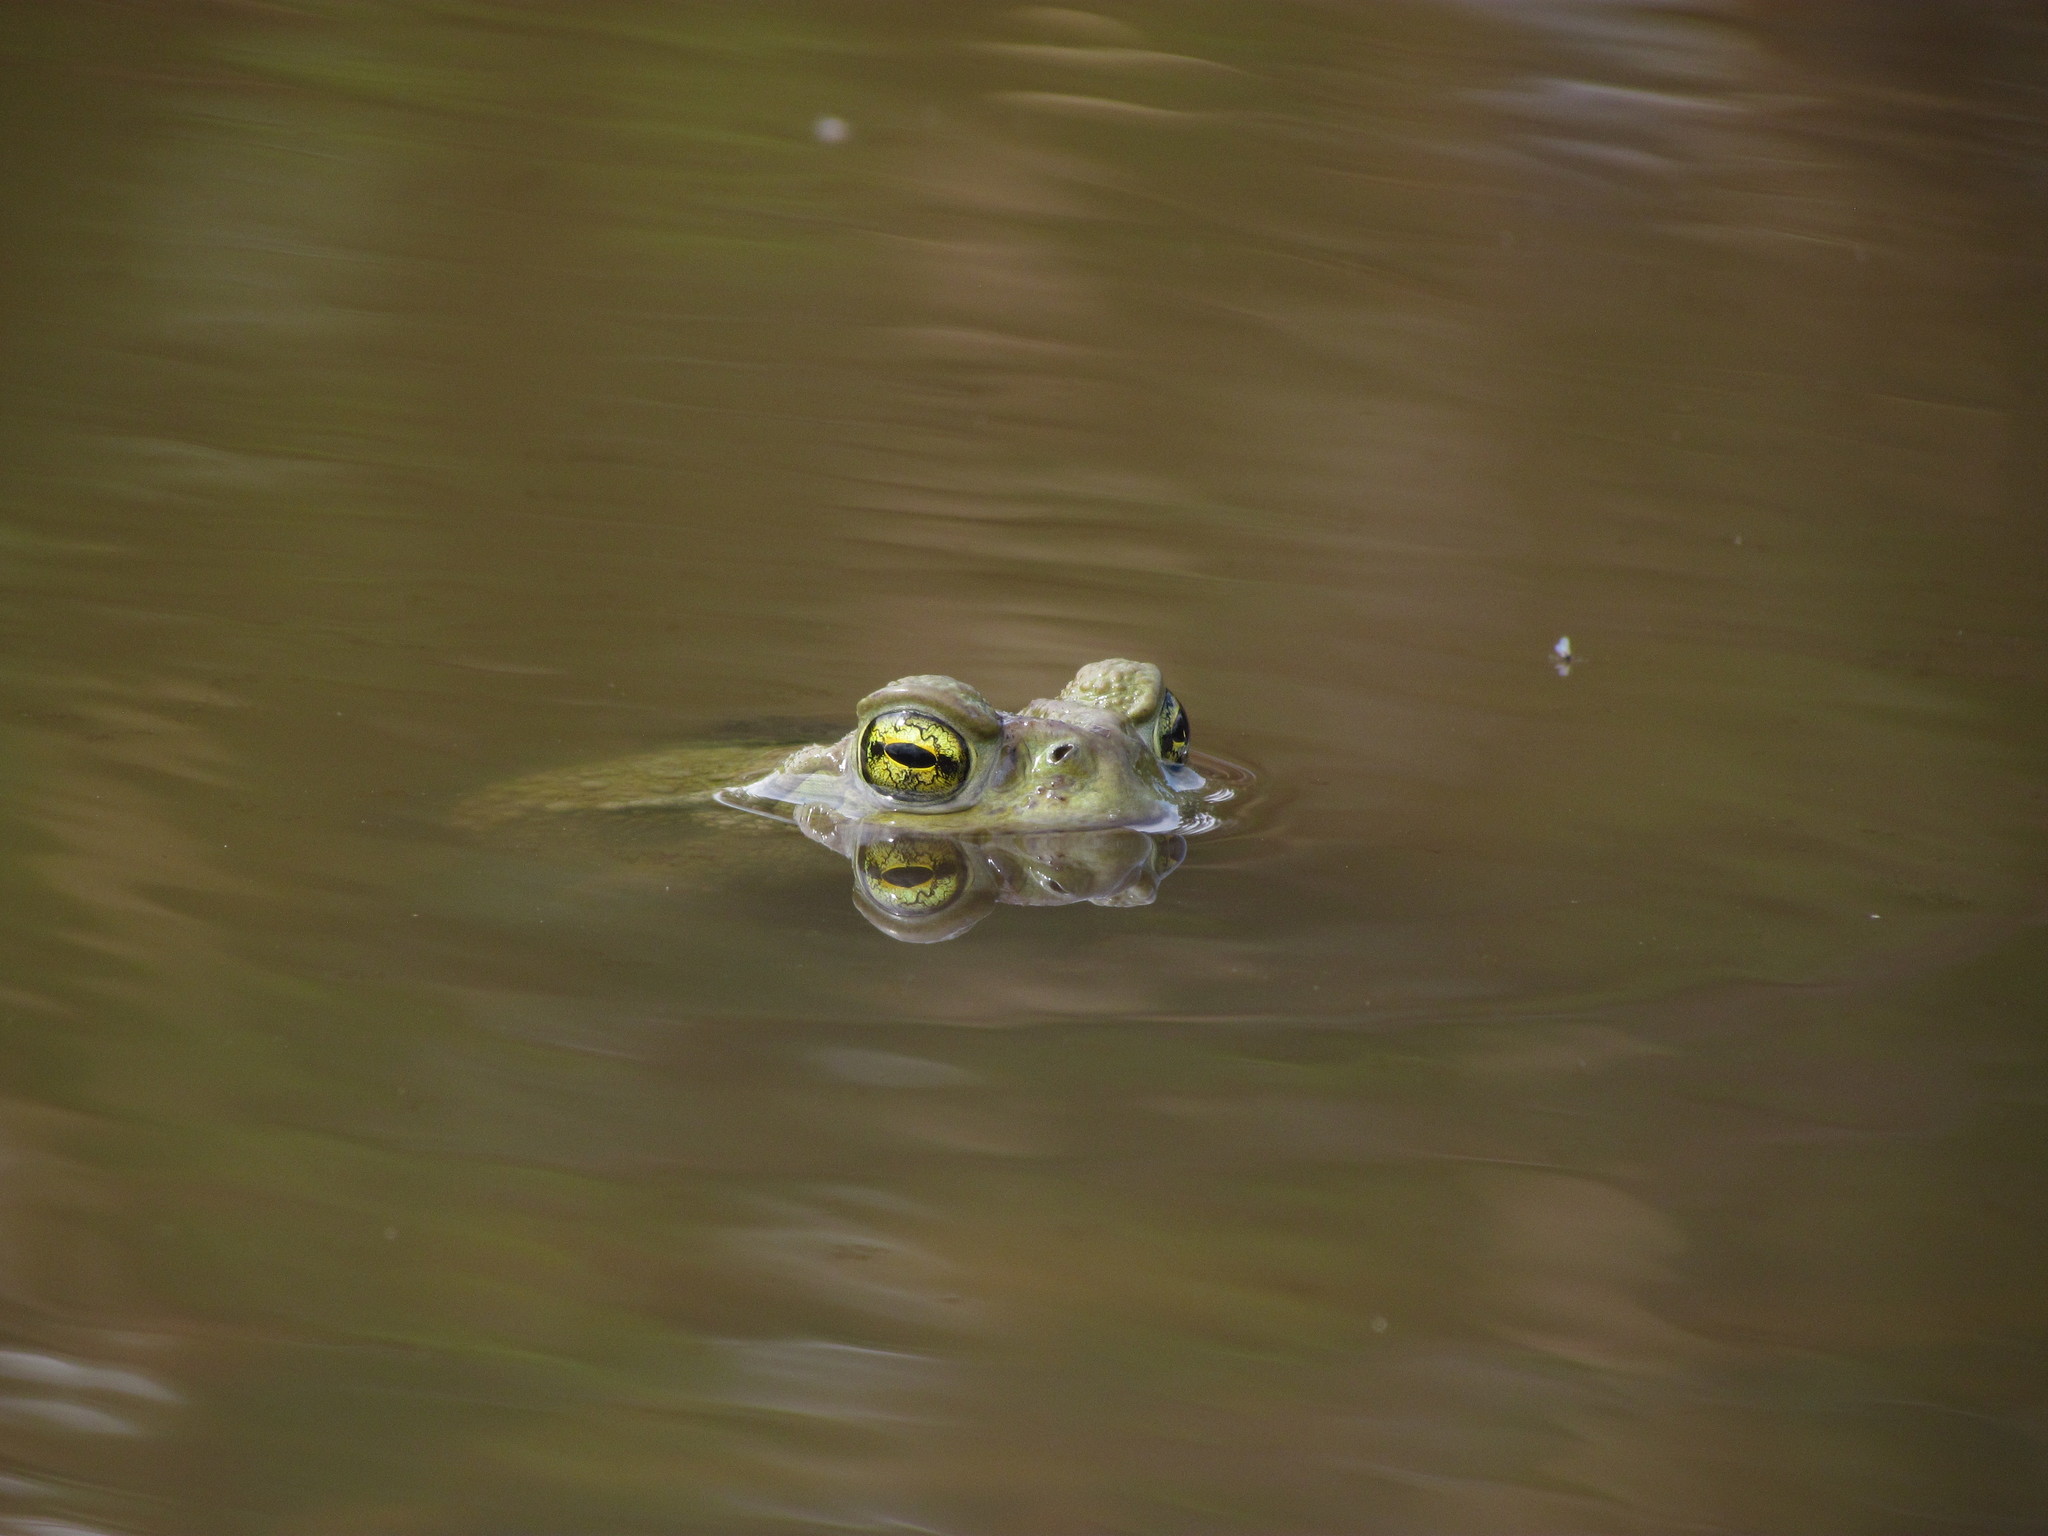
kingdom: Animalia
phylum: Chordata
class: Amphibia
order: Anura
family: Bufonidae
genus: Rhinella
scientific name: Rhinella arenarum
